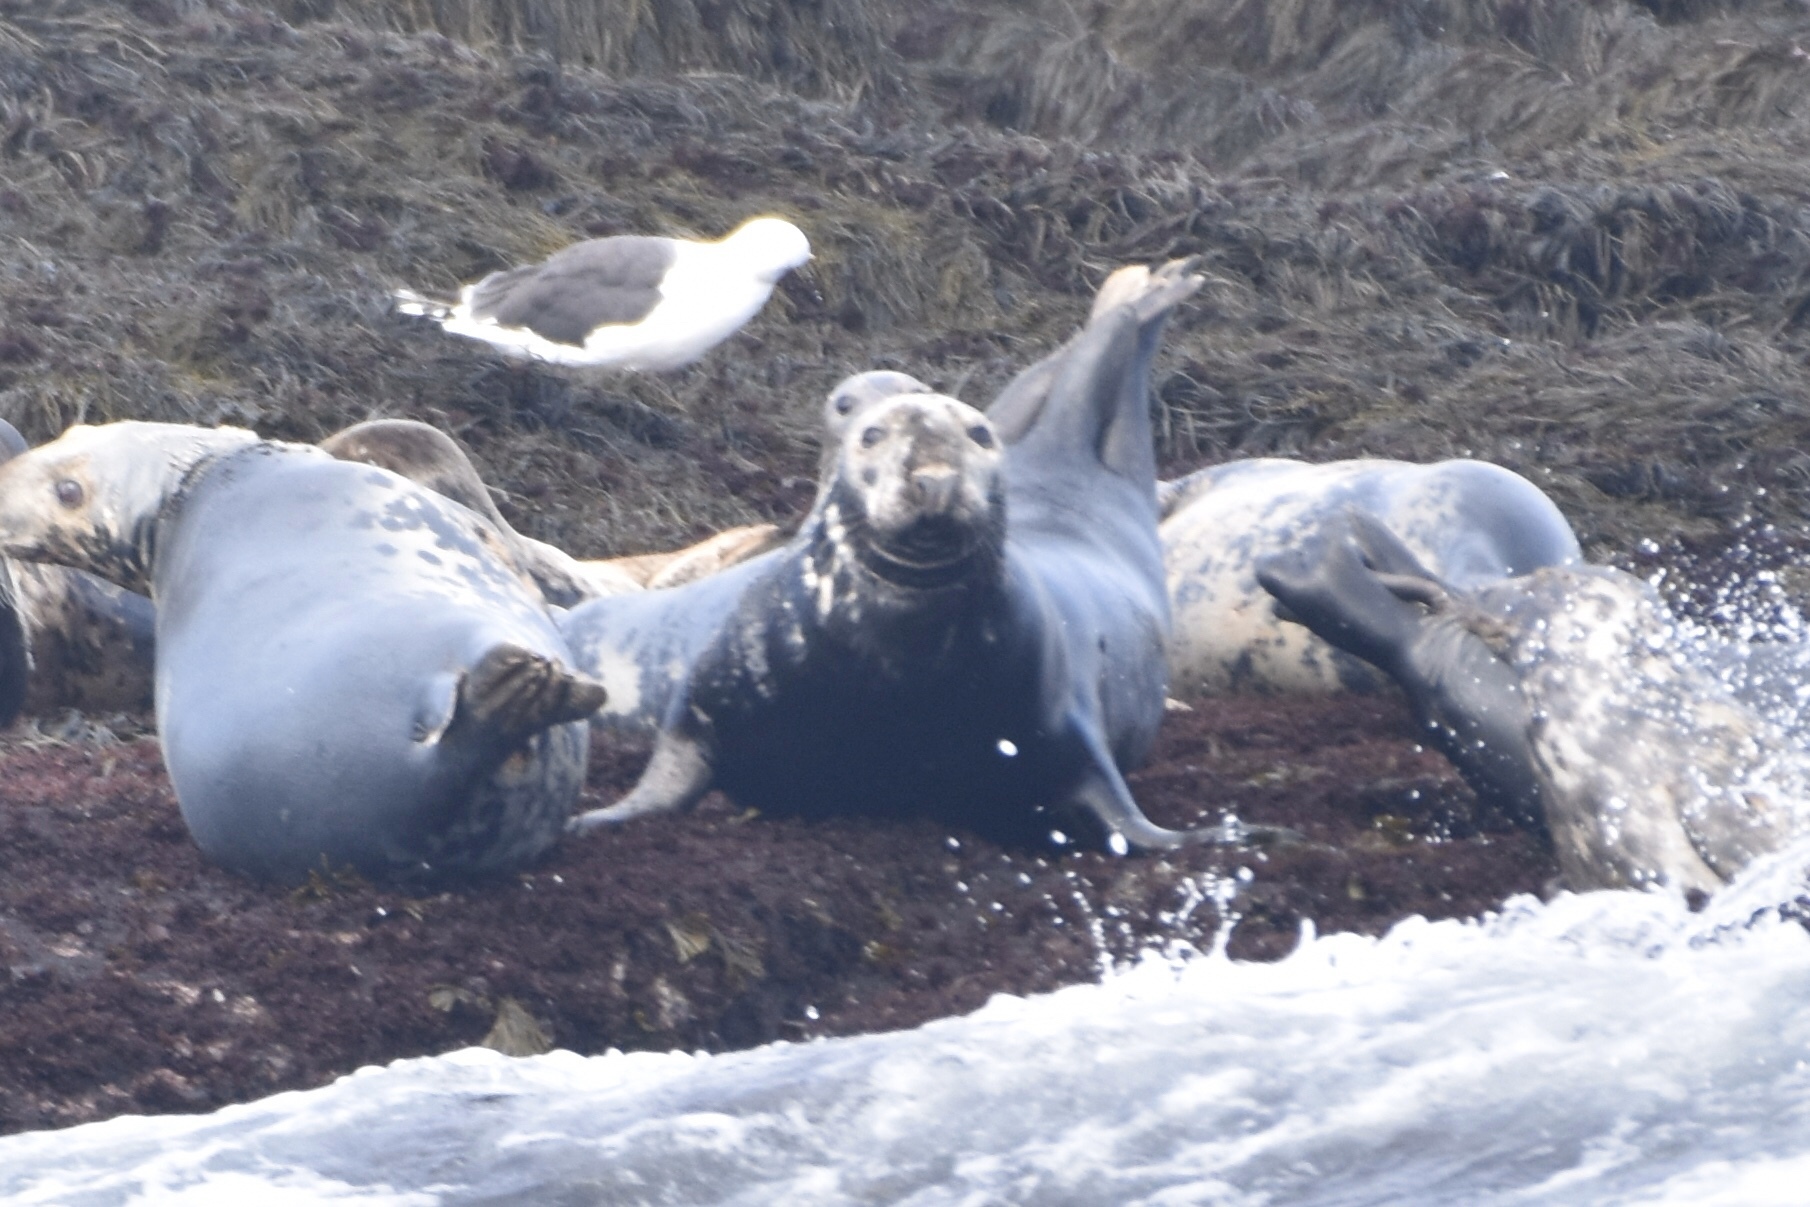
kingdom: Animalia
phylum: Chordata
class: Mammalia
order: Carnivora
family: Phocidae
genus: Halichoerus
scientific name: Halichoerus grypus
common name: Grey seal
